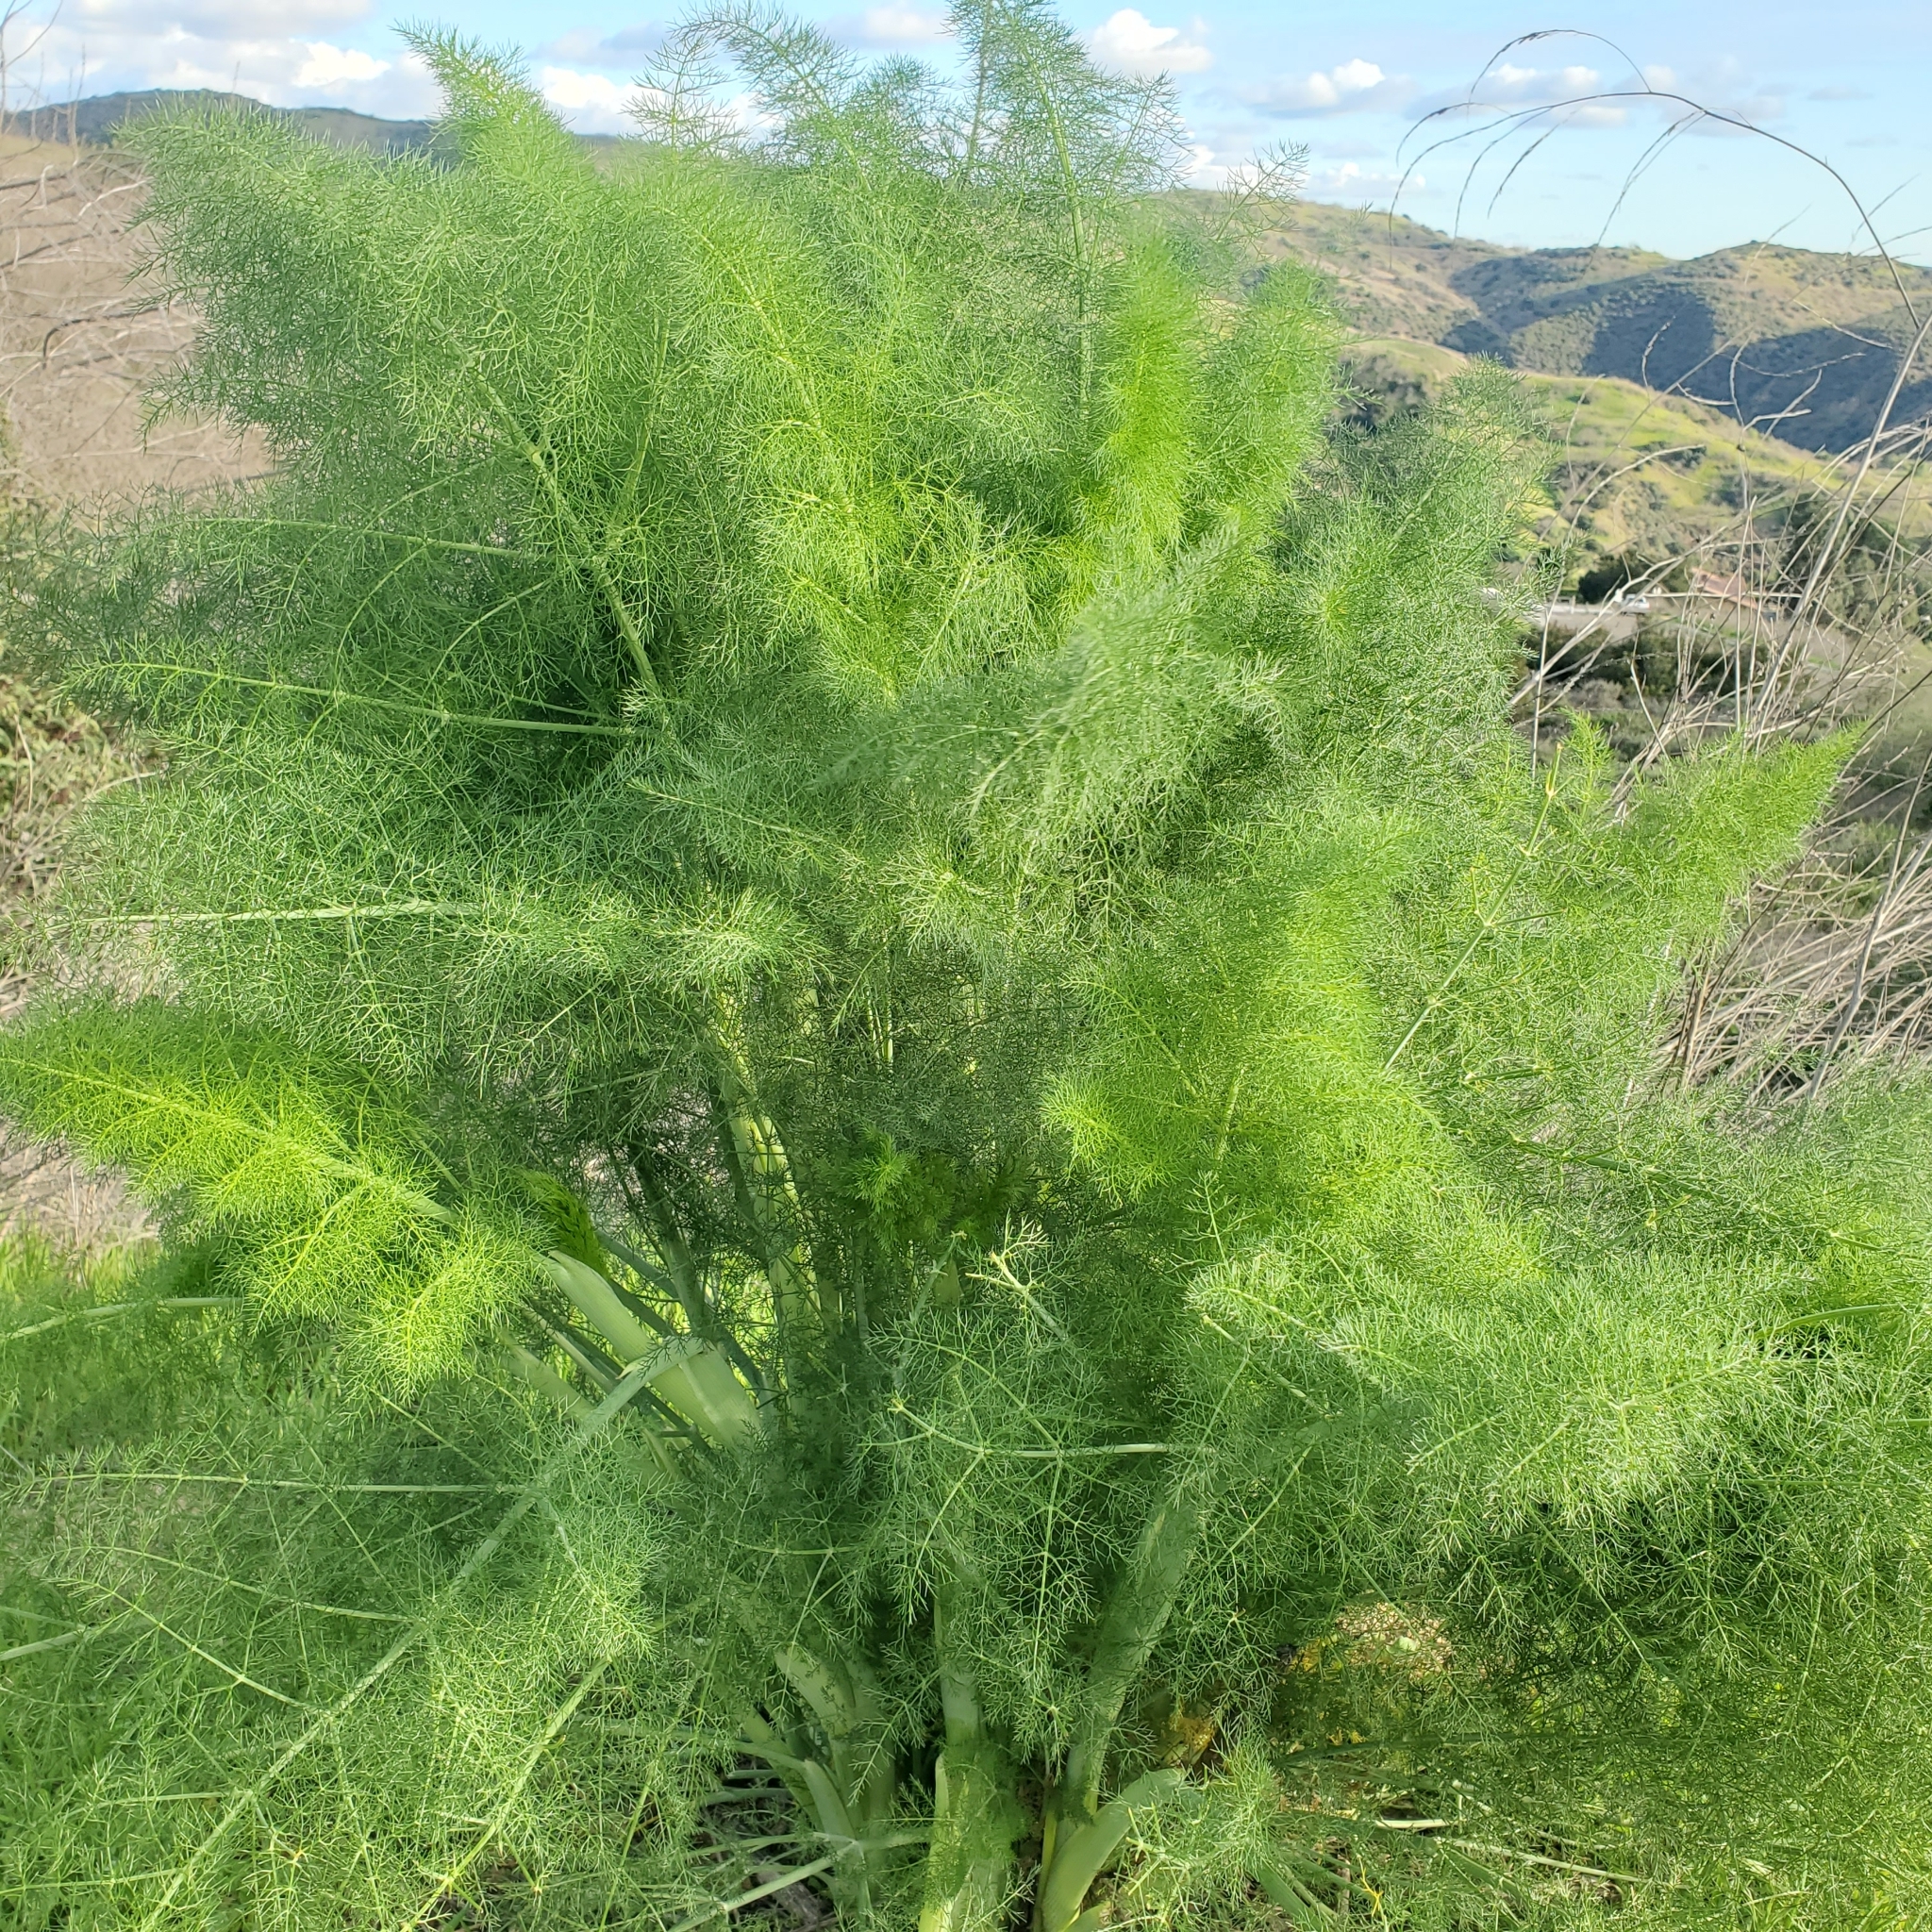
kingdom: Plantae
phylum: Tracheophyta
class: Magnoliopsida
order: Apiales
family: Apiaceae
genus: Foeniculum
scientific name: Foeniculum vulgare
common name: Fennel
